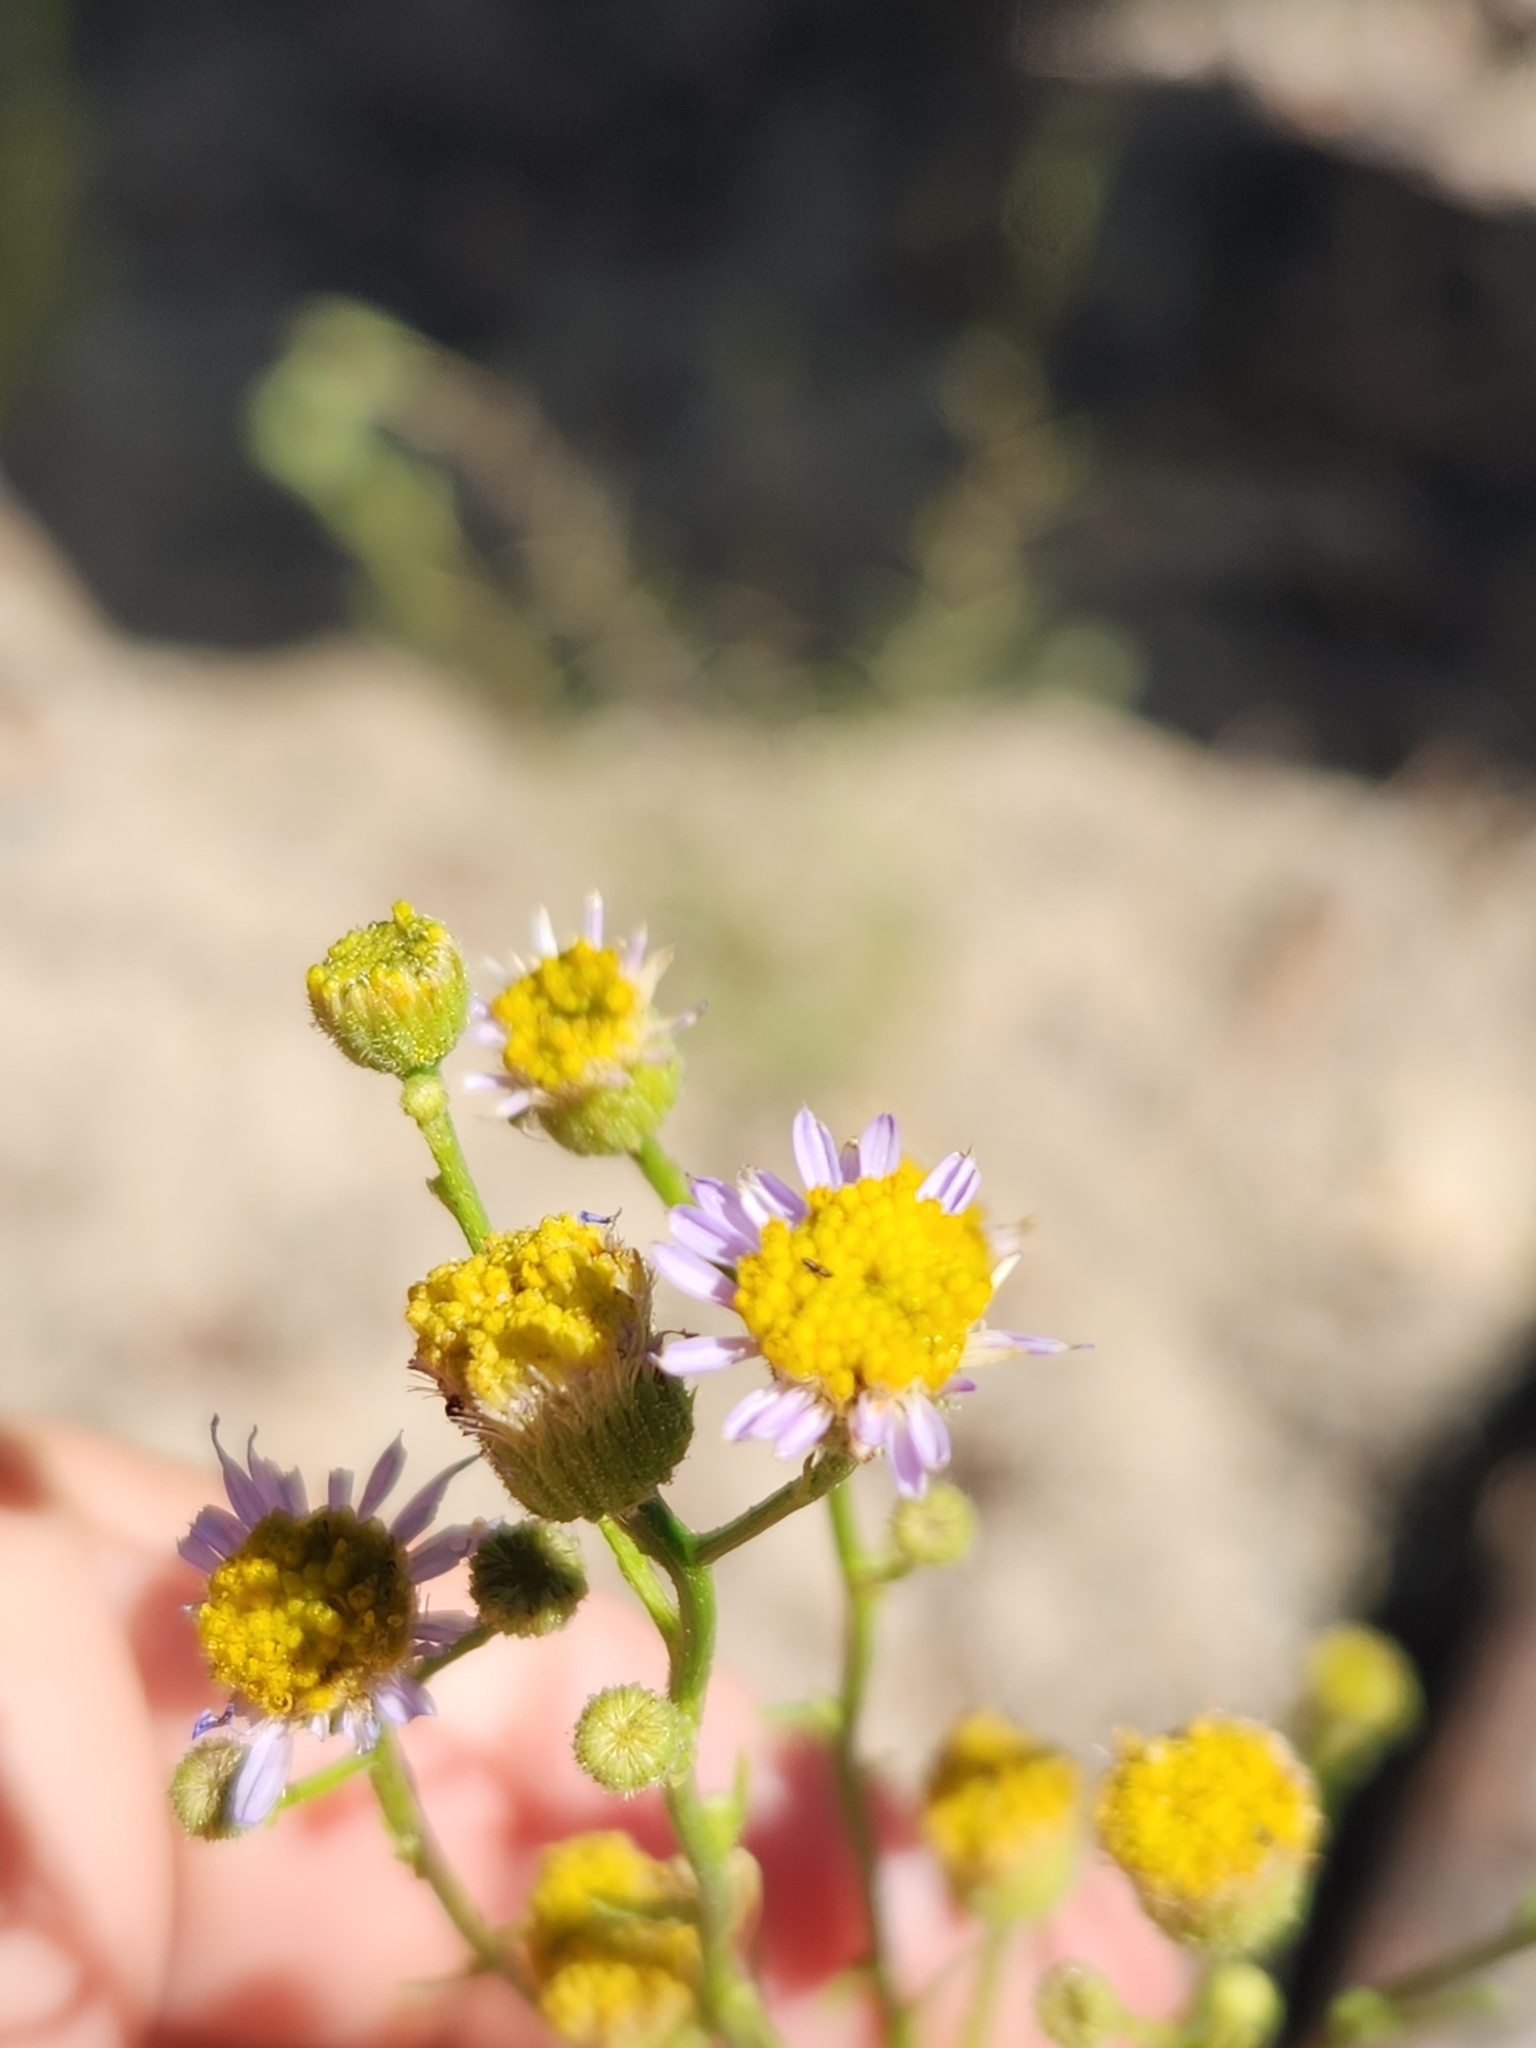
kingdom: Plantae
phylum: Tracheophyta
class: Magnoliopsida
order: Asterales
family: Asteraceae
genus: Erigeron
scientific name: Erigeron foliosus
